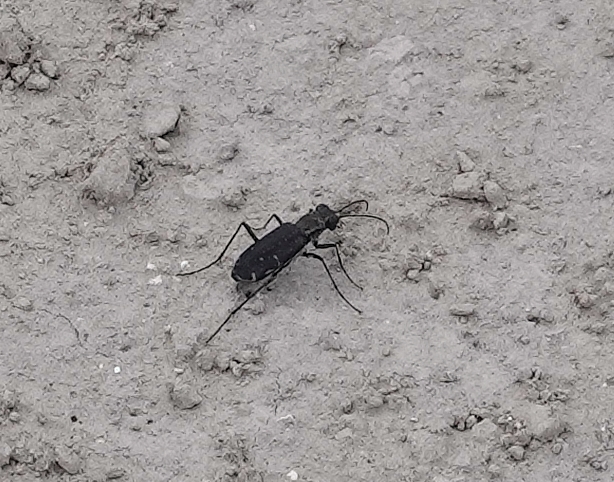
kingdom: Animalia
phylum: Arthropoda
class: Insecta
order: Coleoptera
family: Carabidae
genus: Cicindela
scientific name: Cicindela punctulata
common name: Punctured tiger beetle
